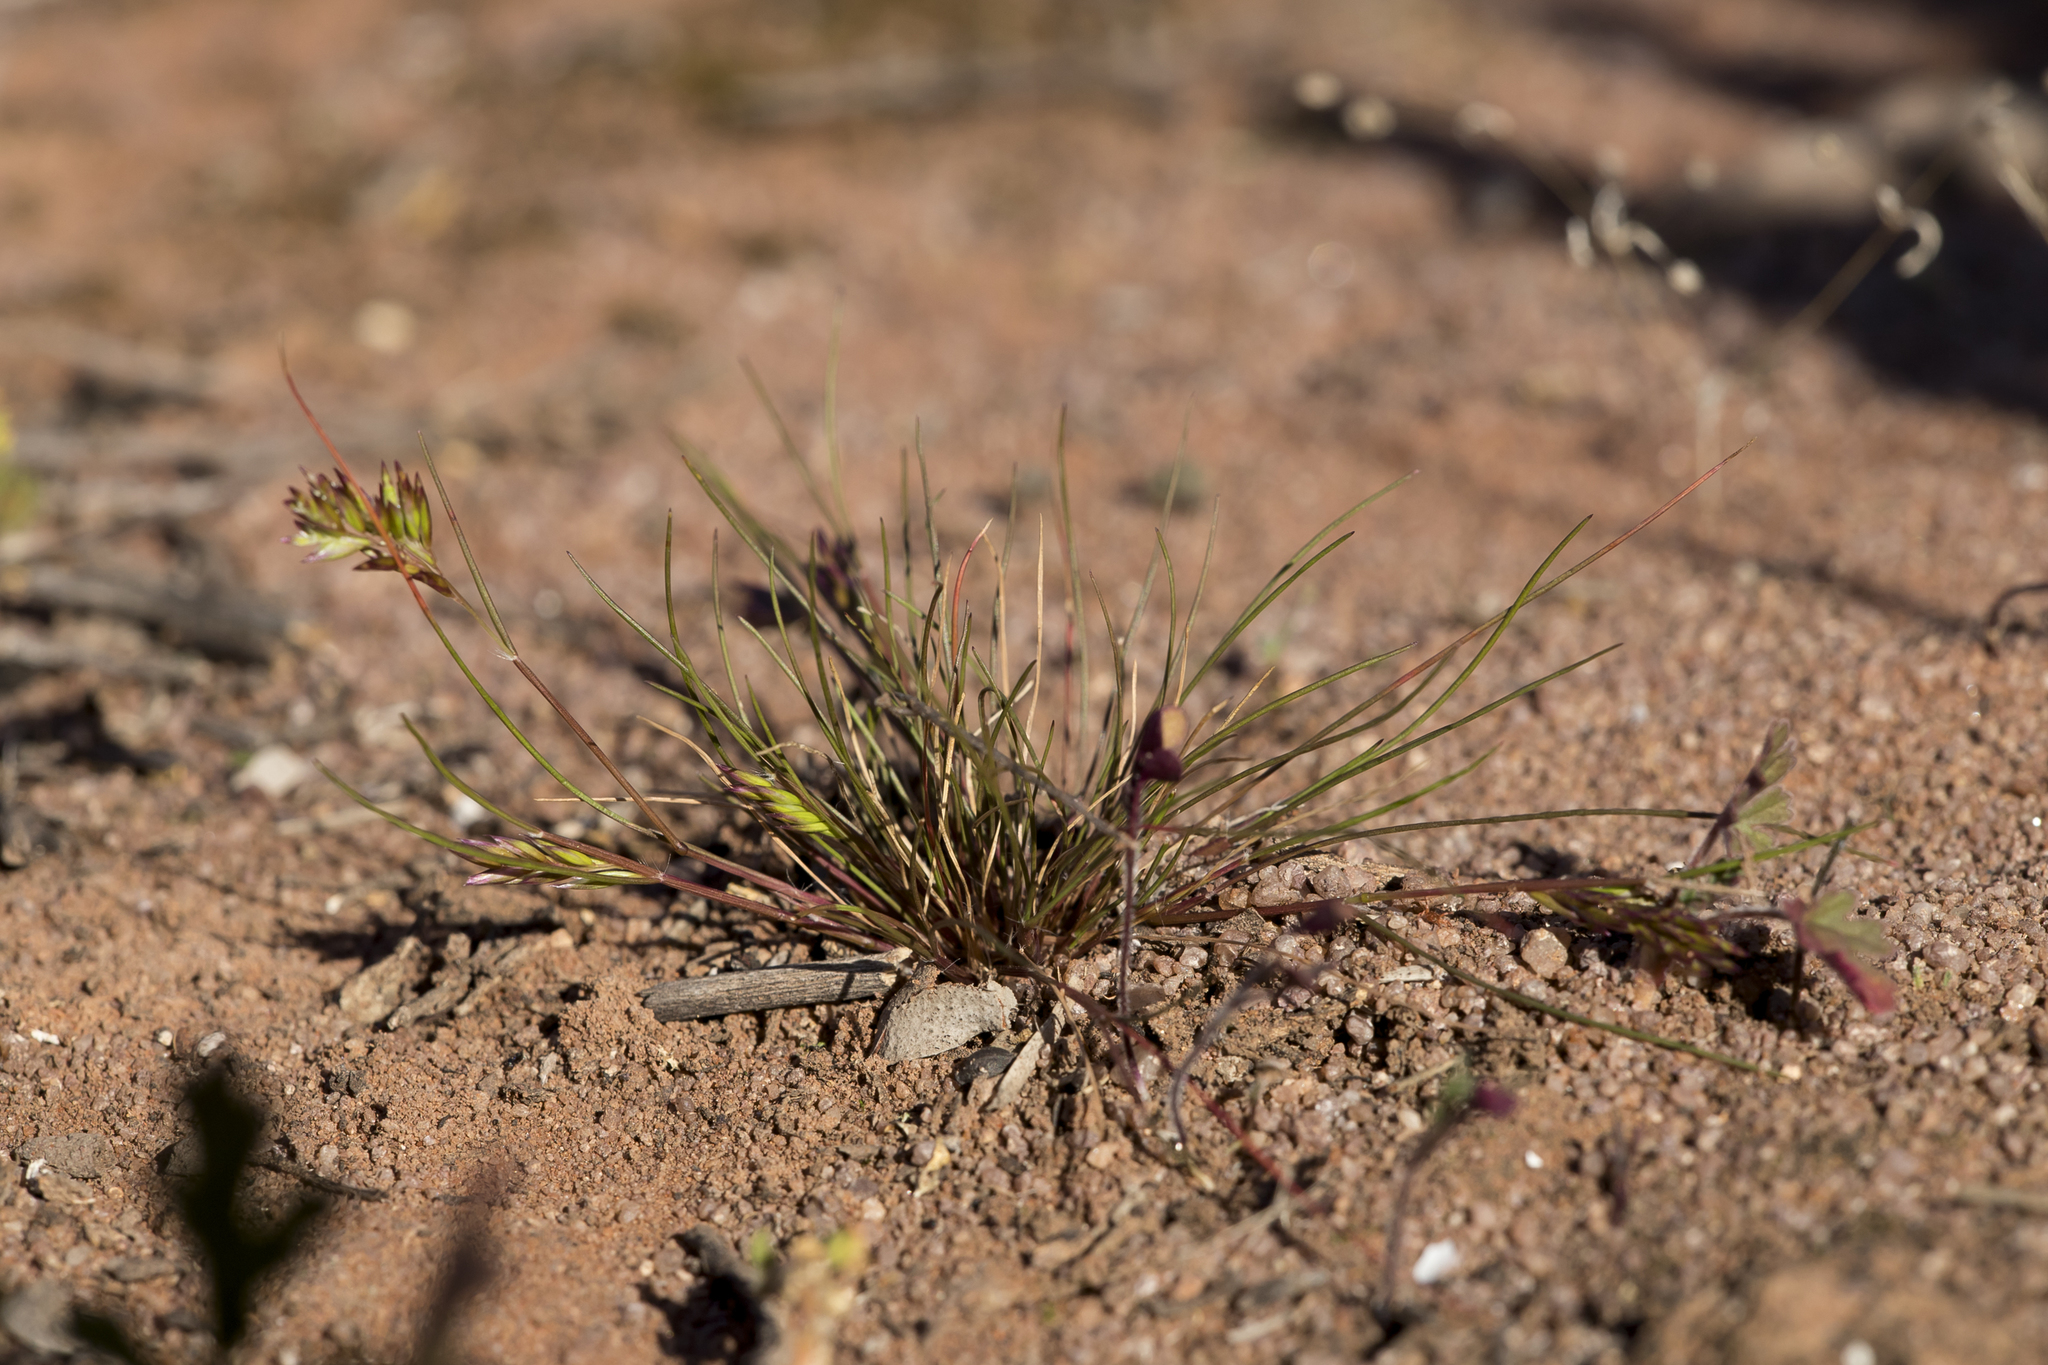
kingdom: Plantae
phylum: Tracheophyta
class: Liliopsida
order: Poales
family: Poaceae
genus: Schismus
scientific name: Schismus barbatus
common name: Kelch-grass
